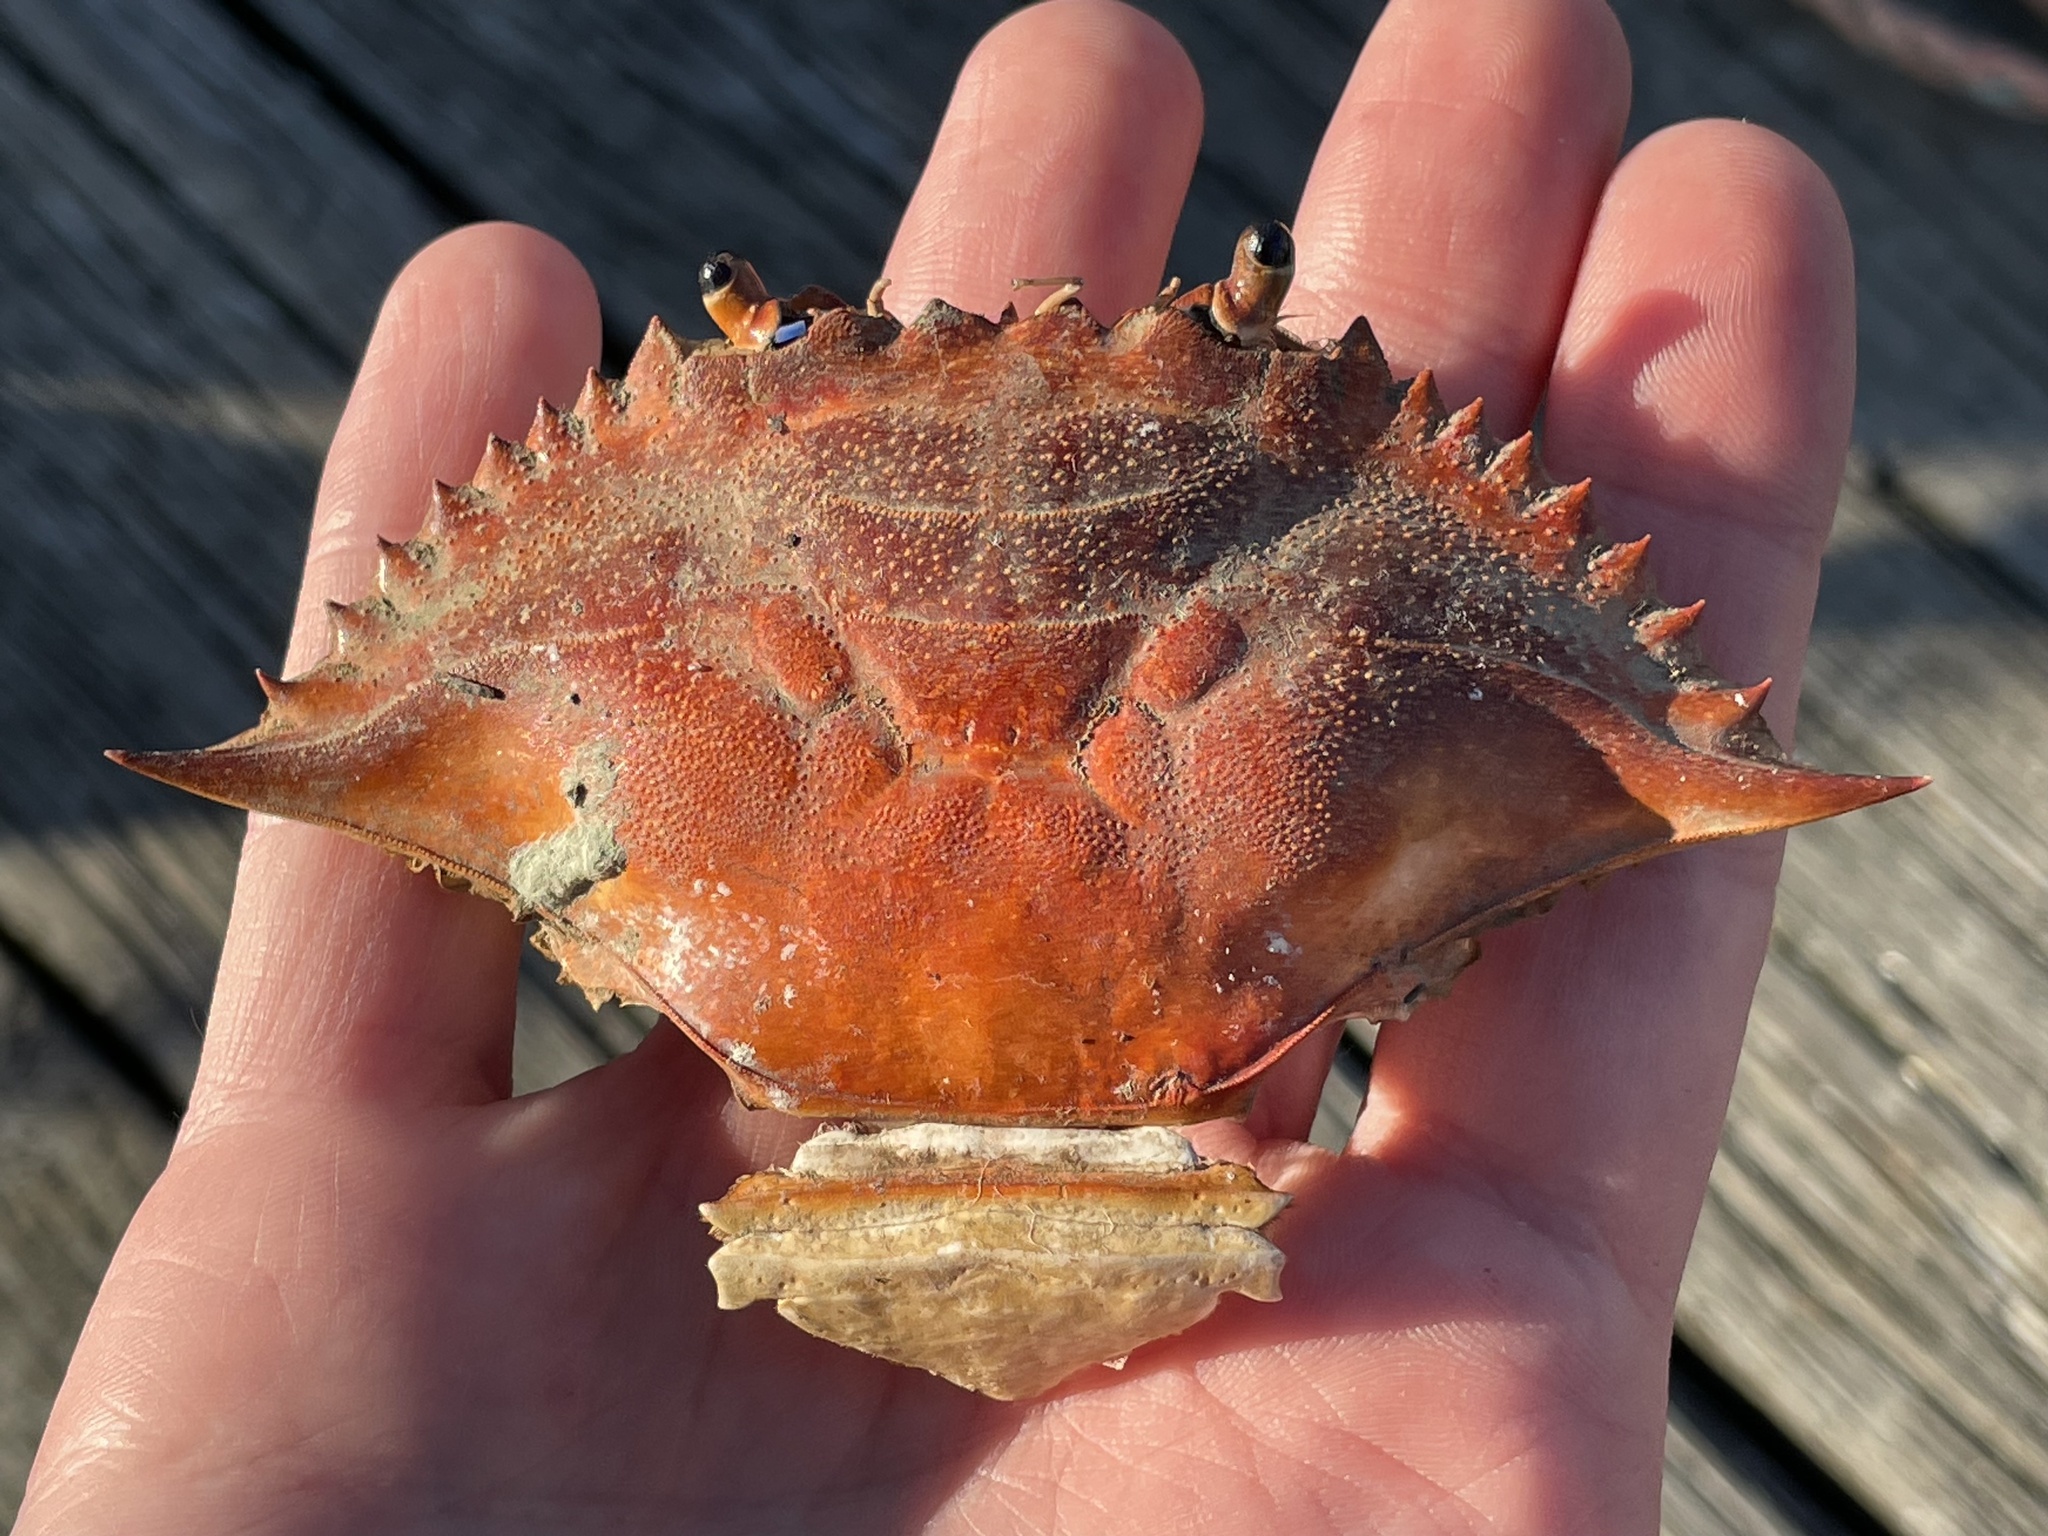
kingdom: Animalia
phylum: Arthropoda
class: Malacostraca
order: Decapoda
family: Portunidae
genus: Callinectes
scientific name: Callinectes sapidus
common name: Blue crab
